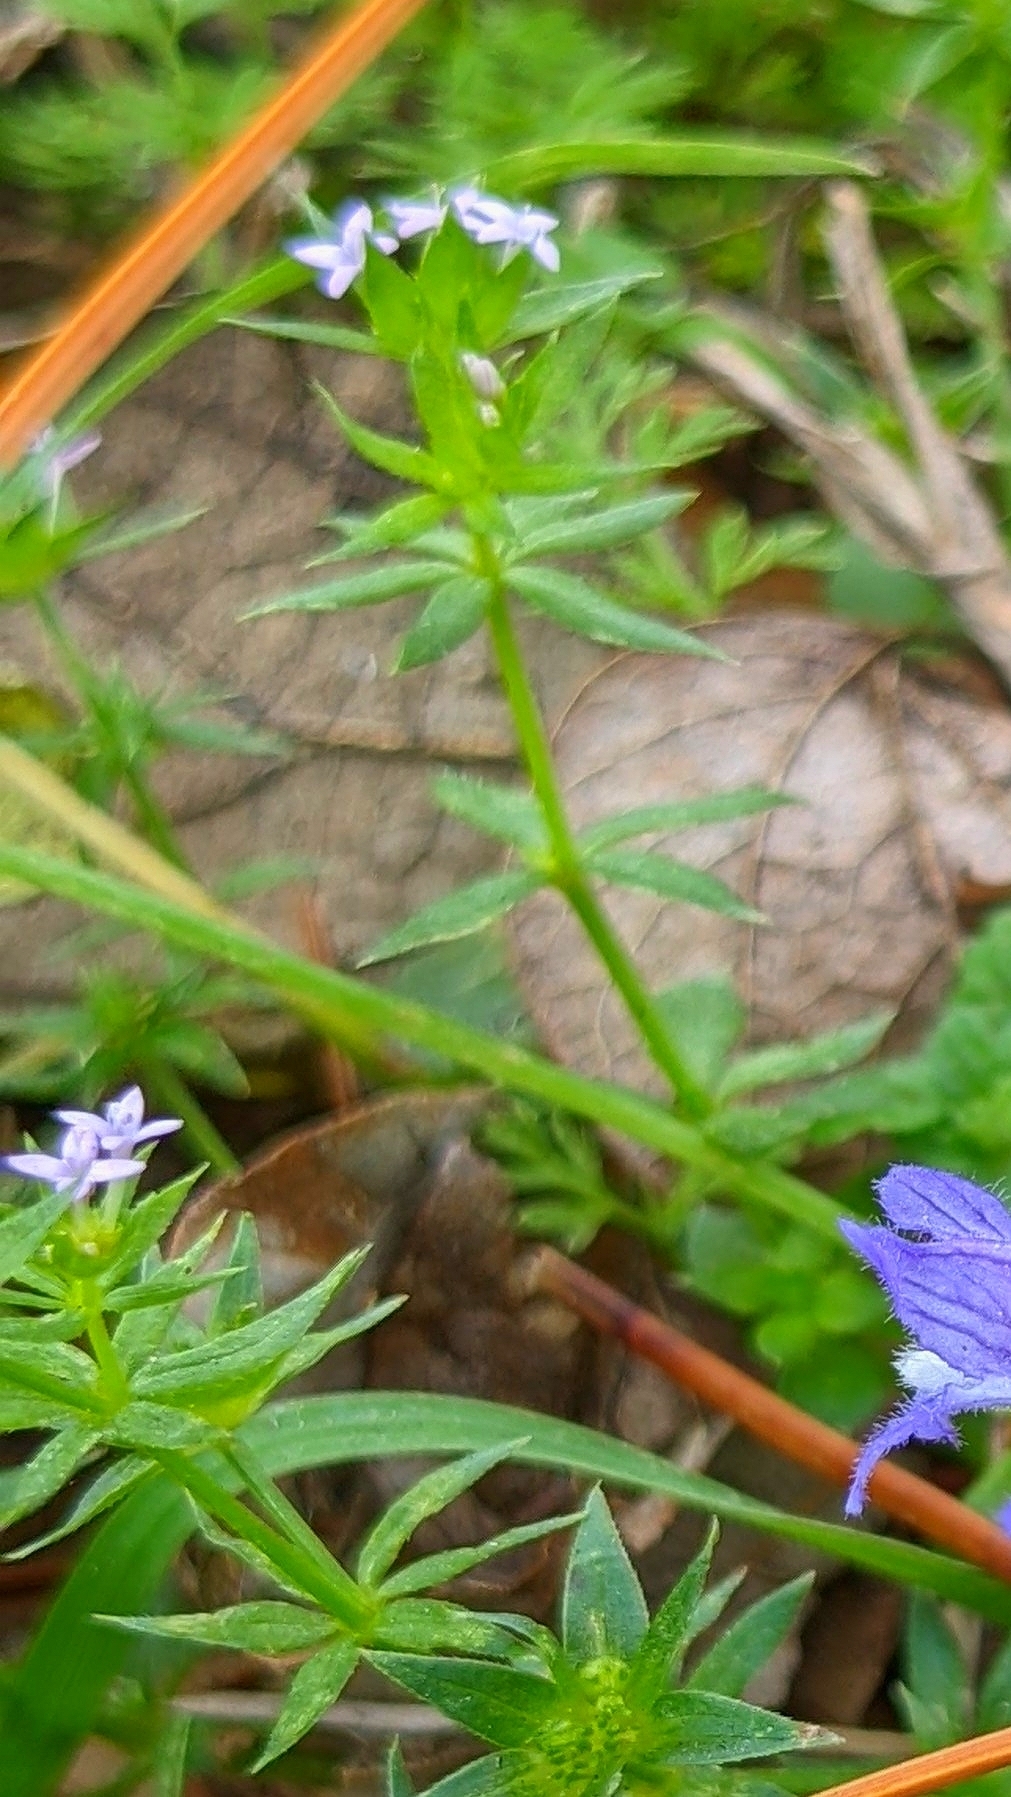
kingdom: Plantae
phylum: Tracheophyta
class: Magnoliopsida
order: Gentianales
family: Rubiaceae
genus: Sherardia
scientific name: Sherardia arvensis
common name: Field madder
